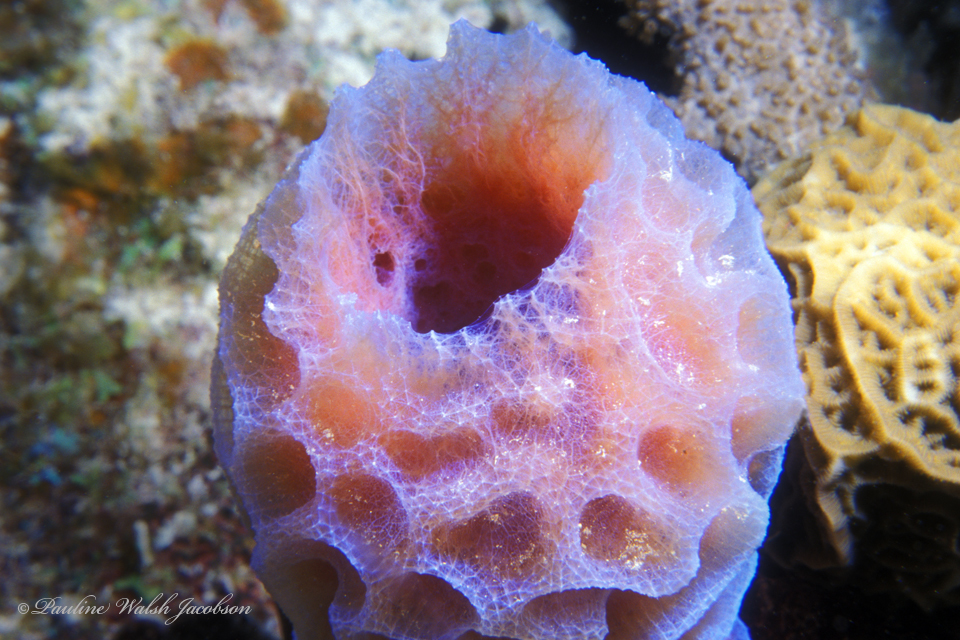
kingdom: Animalia
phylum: Porifera
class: Demospongiae
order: Haplosclerida
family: Callyspongiidae
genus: Callyspongia
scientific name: Callyspongia plicifera
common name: Azure vase sponge
